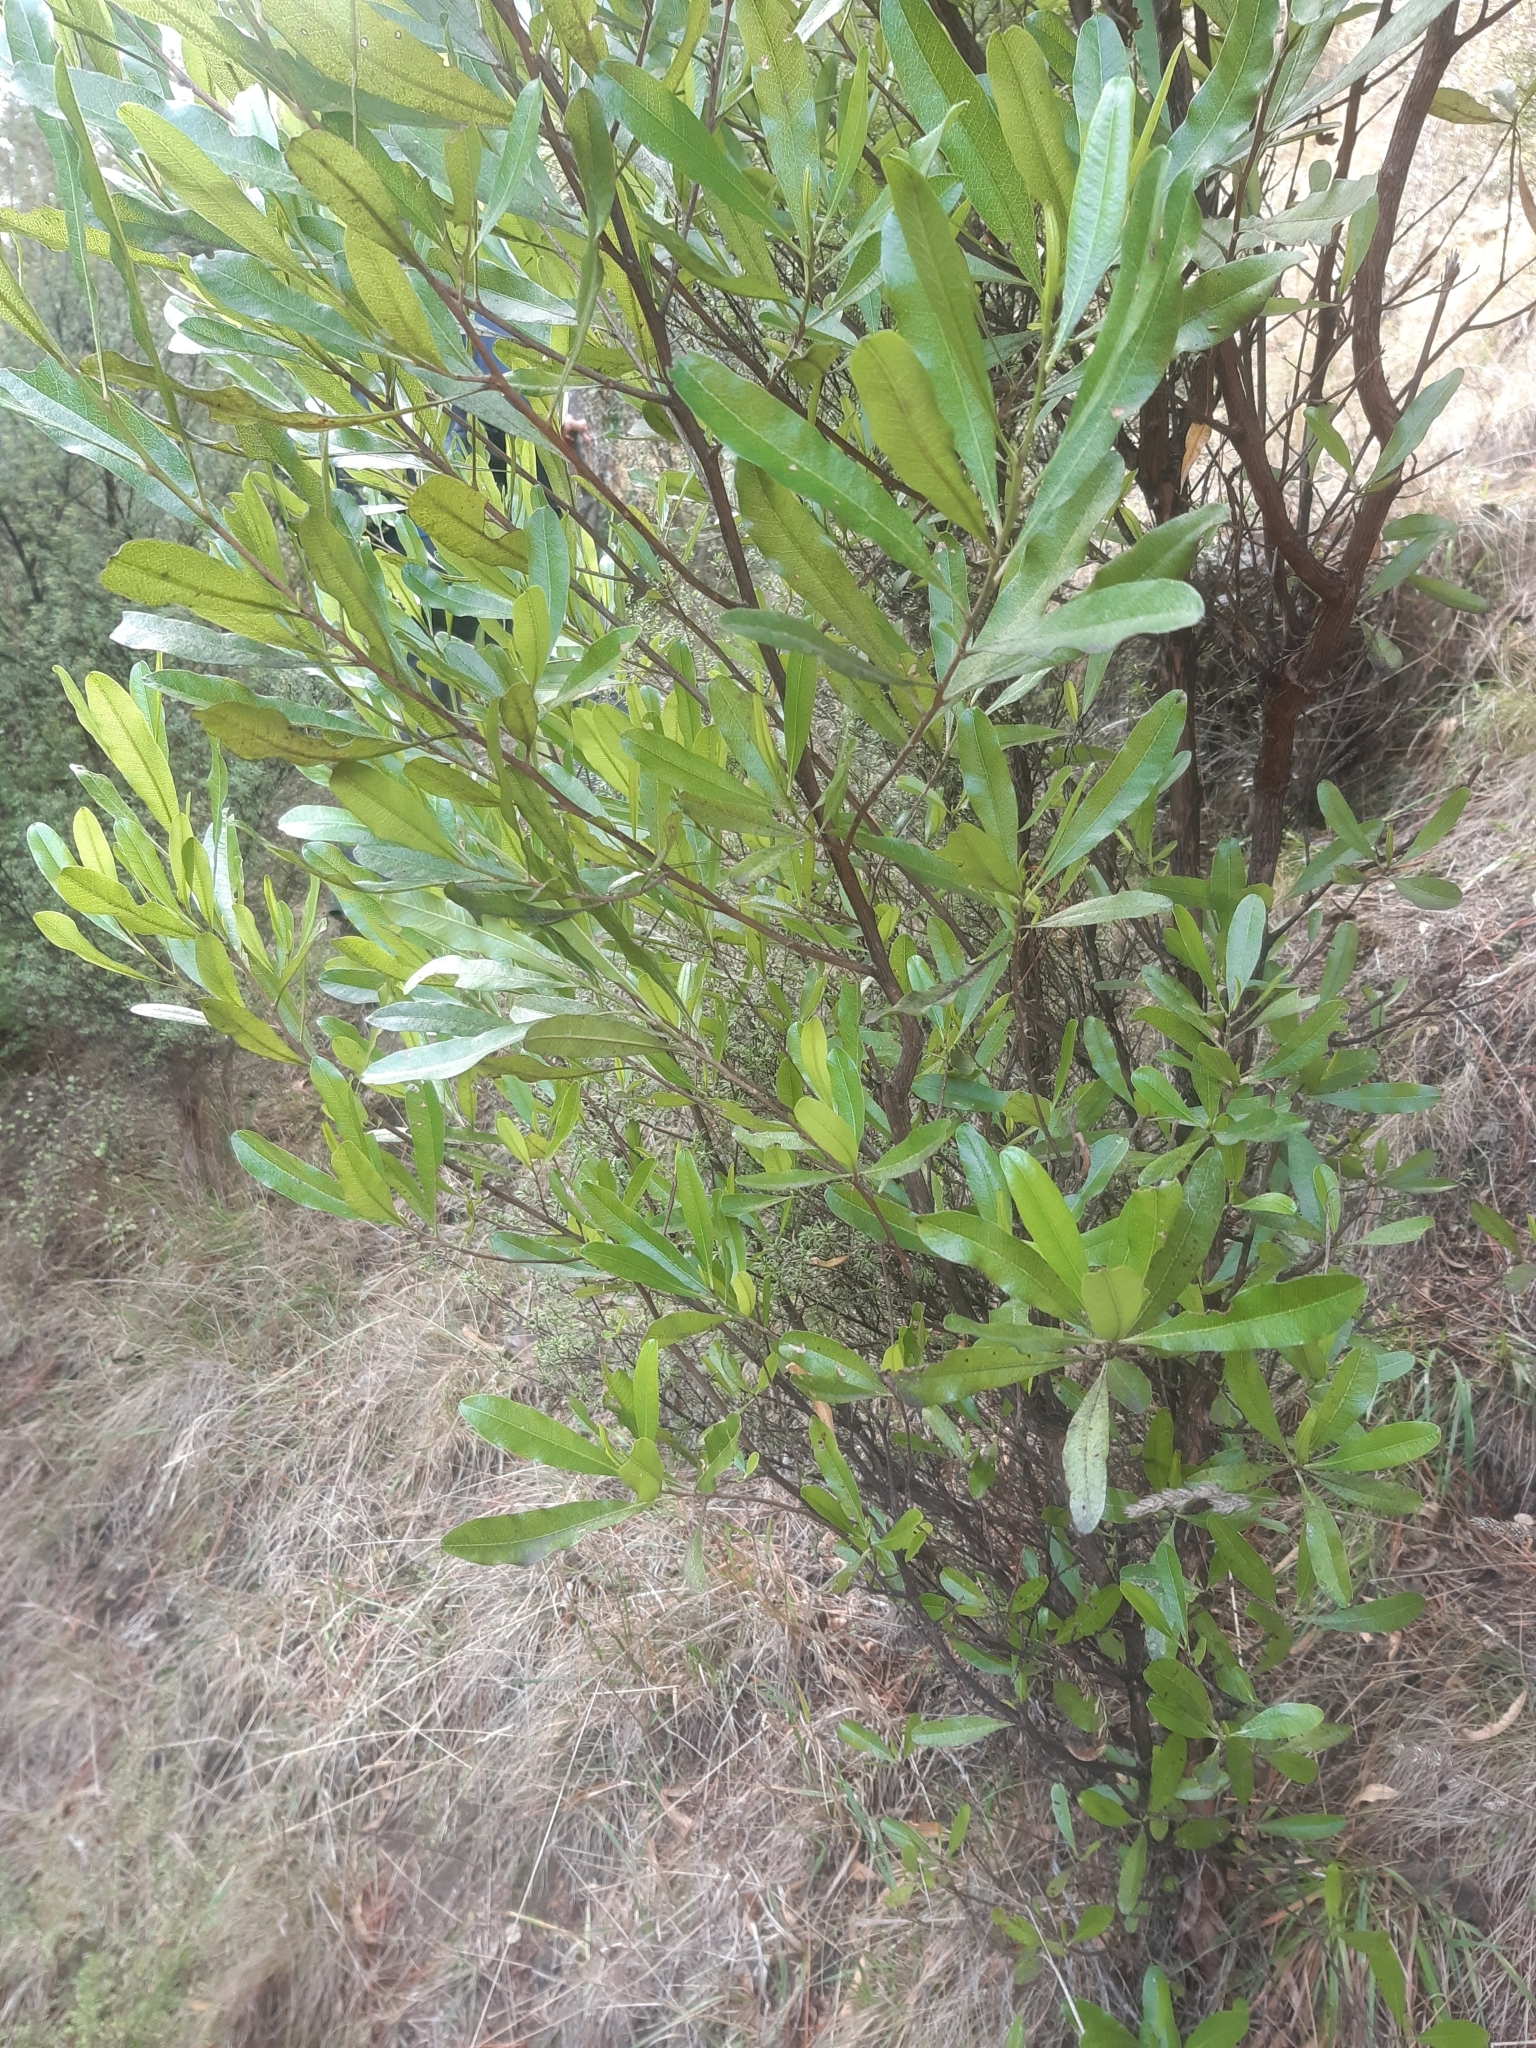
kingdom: Plantae
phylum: Tracheophyta
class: Magnoliopsida
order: Sapindales
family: Sapindaceae
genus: Dodonaea
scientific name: Dodonaea viscosa
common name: Hopbush
